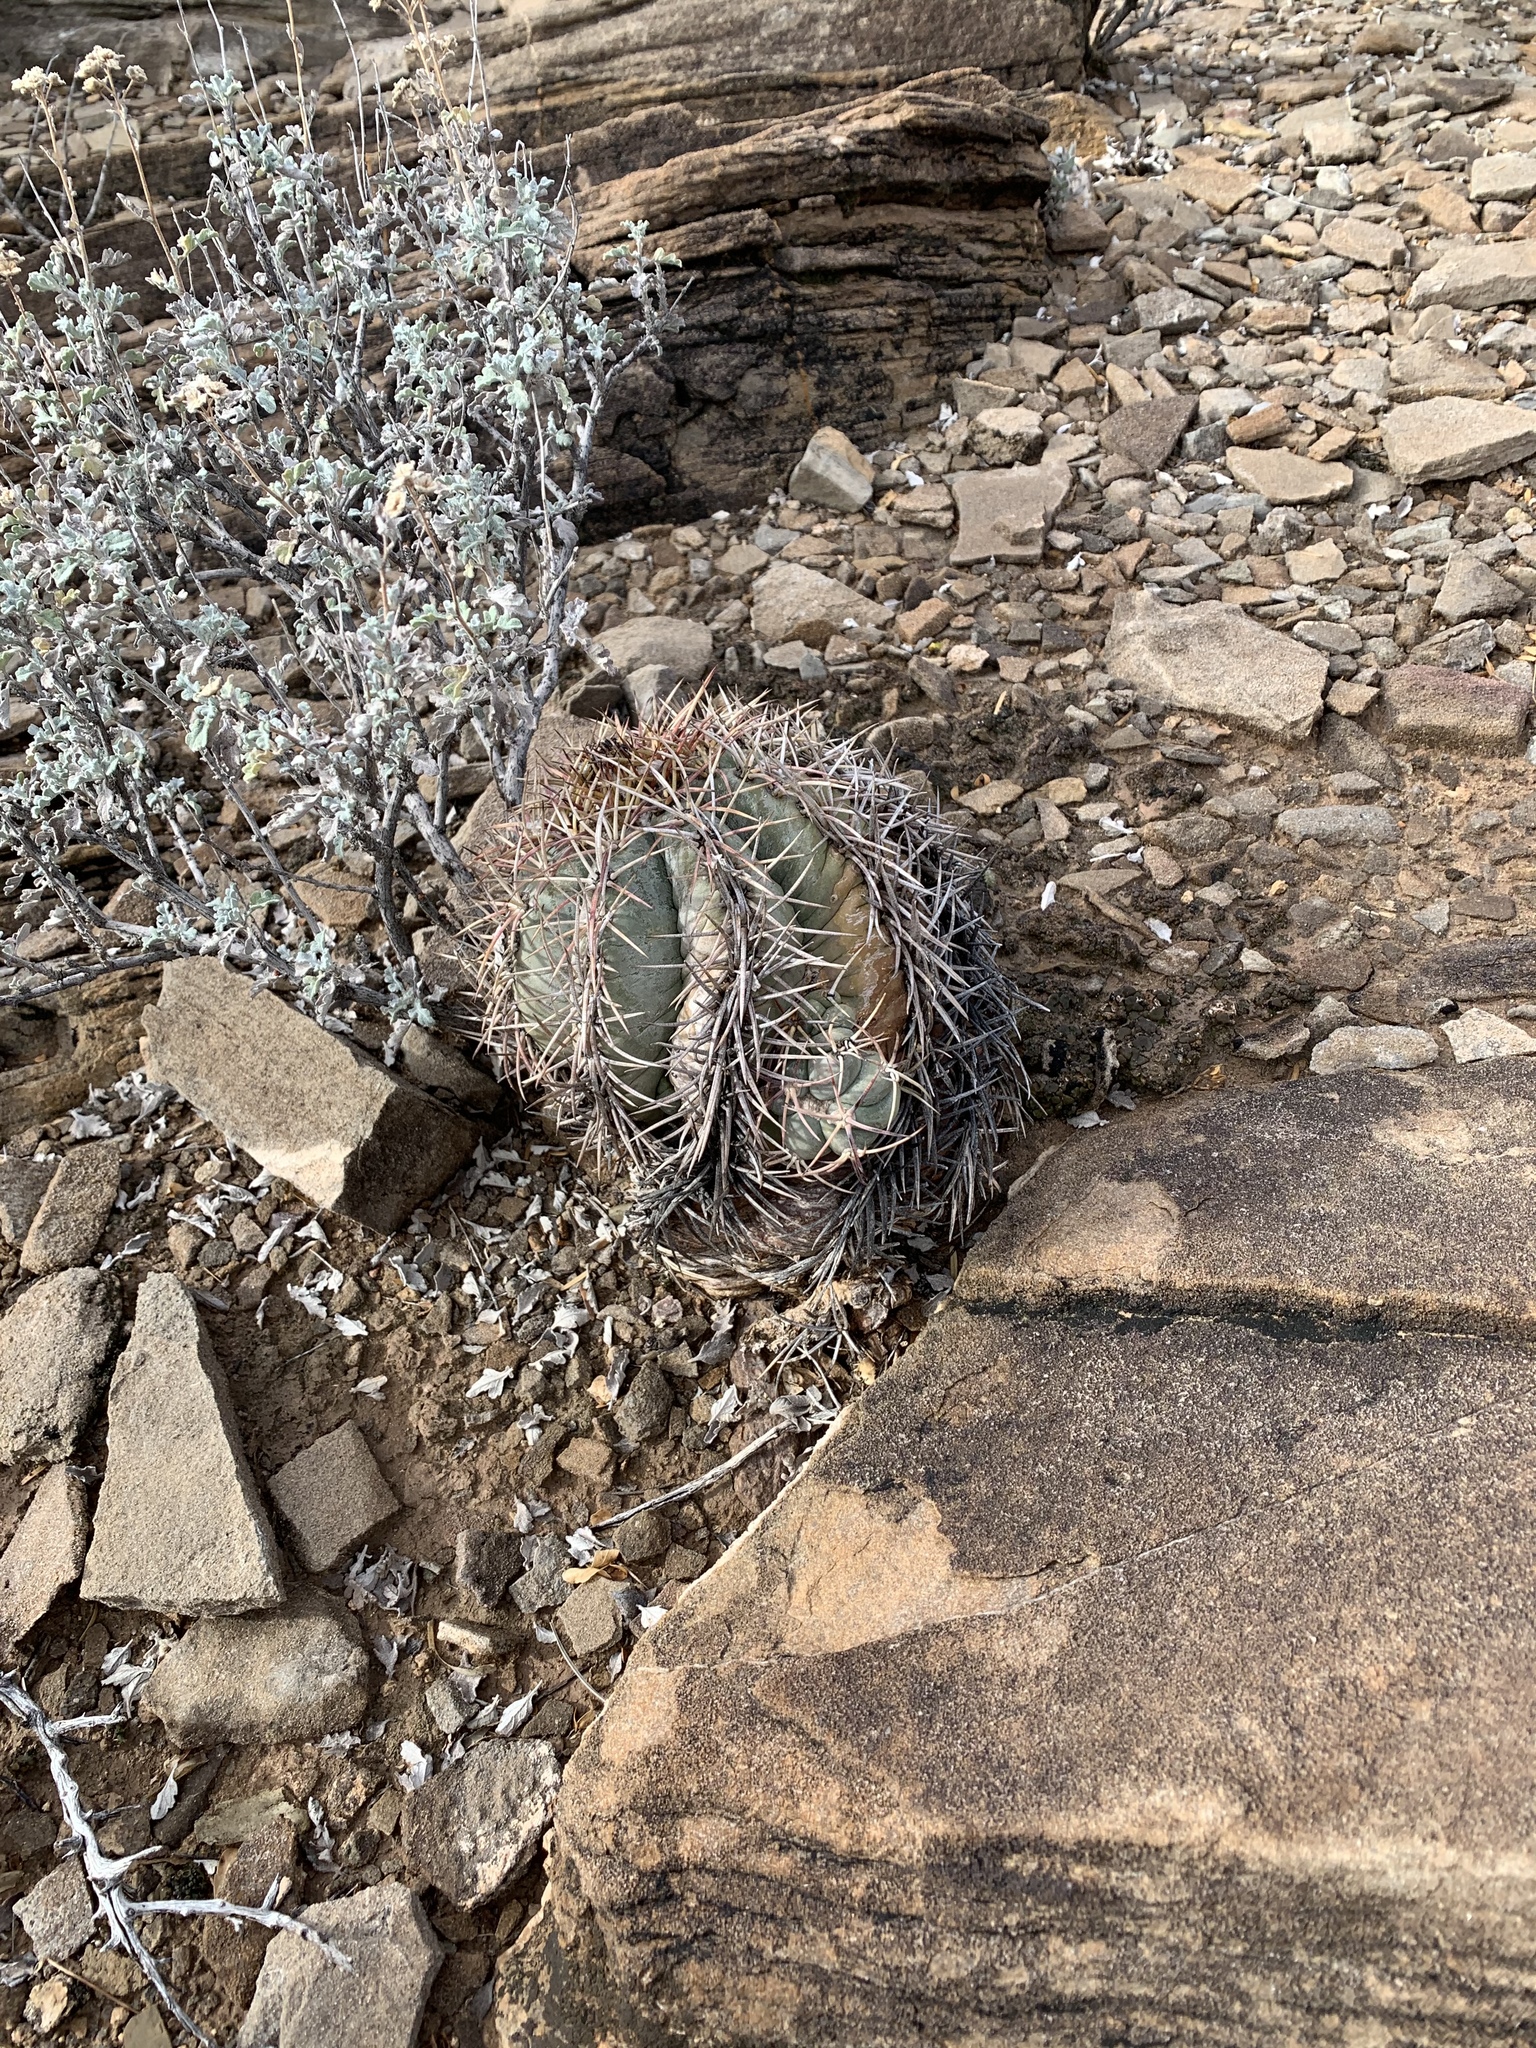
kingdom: Plantae
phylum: Tracheophyta
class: Magnoliopsida
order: Caryophyllales
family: Cactaceae
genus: Echinocactus
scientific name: Echinocactus horizonthalonius
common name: Devilshead
